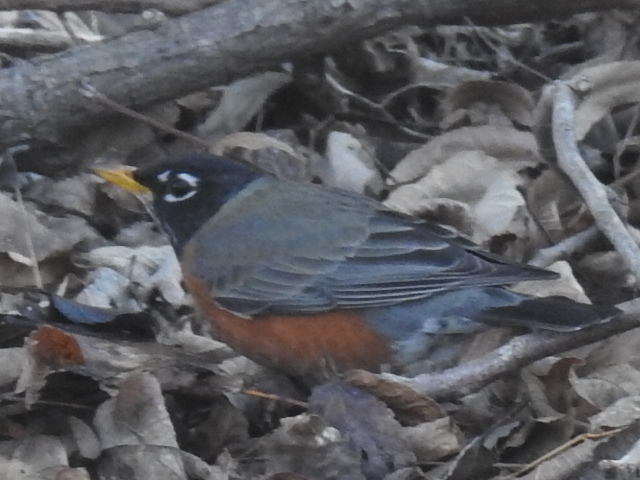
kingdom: Animalia
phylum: Chordata
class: Aves
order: Passeriformes
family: Turdidae
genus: Turdus
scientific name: Turdus migratorius
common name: American robin
